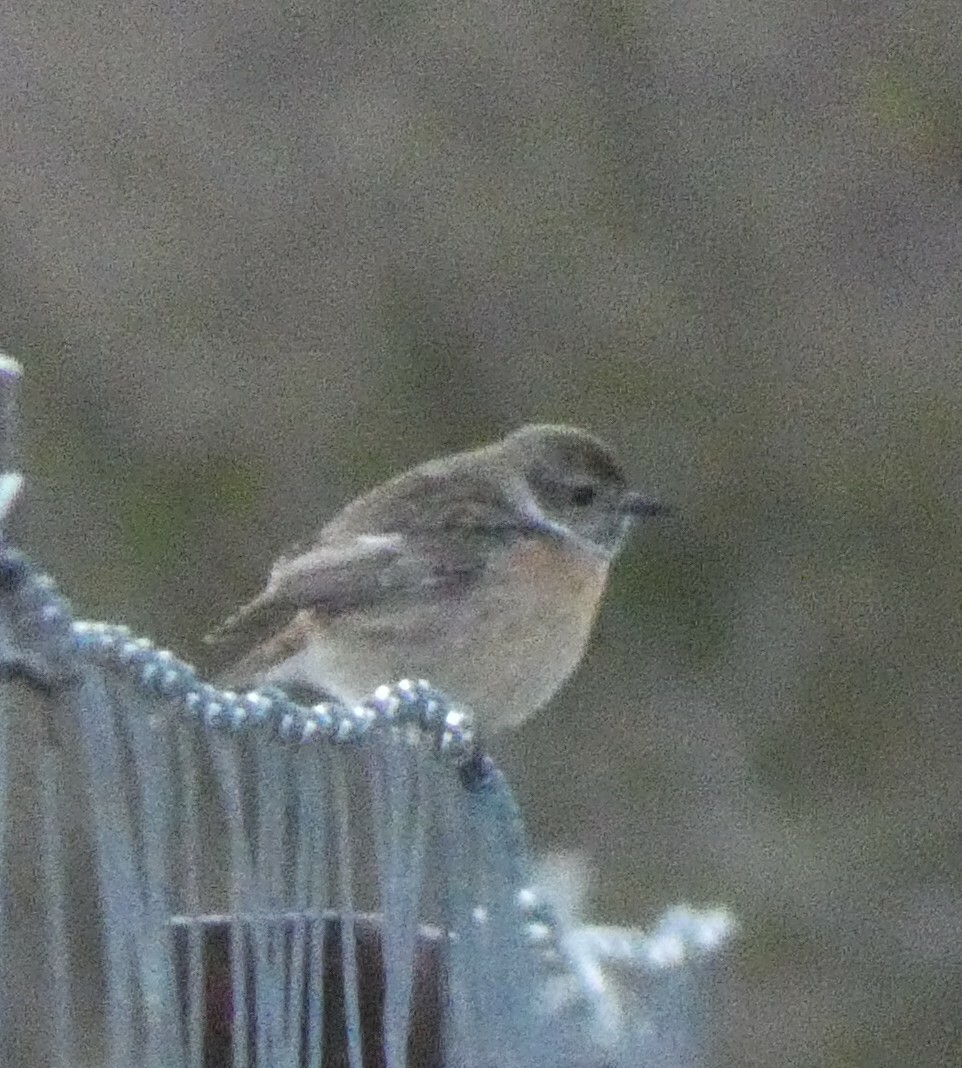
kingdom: Animalia
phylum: Chordata
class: Aves
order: Passeriformes
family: Muscicapidae
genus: Saxicola
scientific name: Saxicola rubicola
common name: European stonechat
